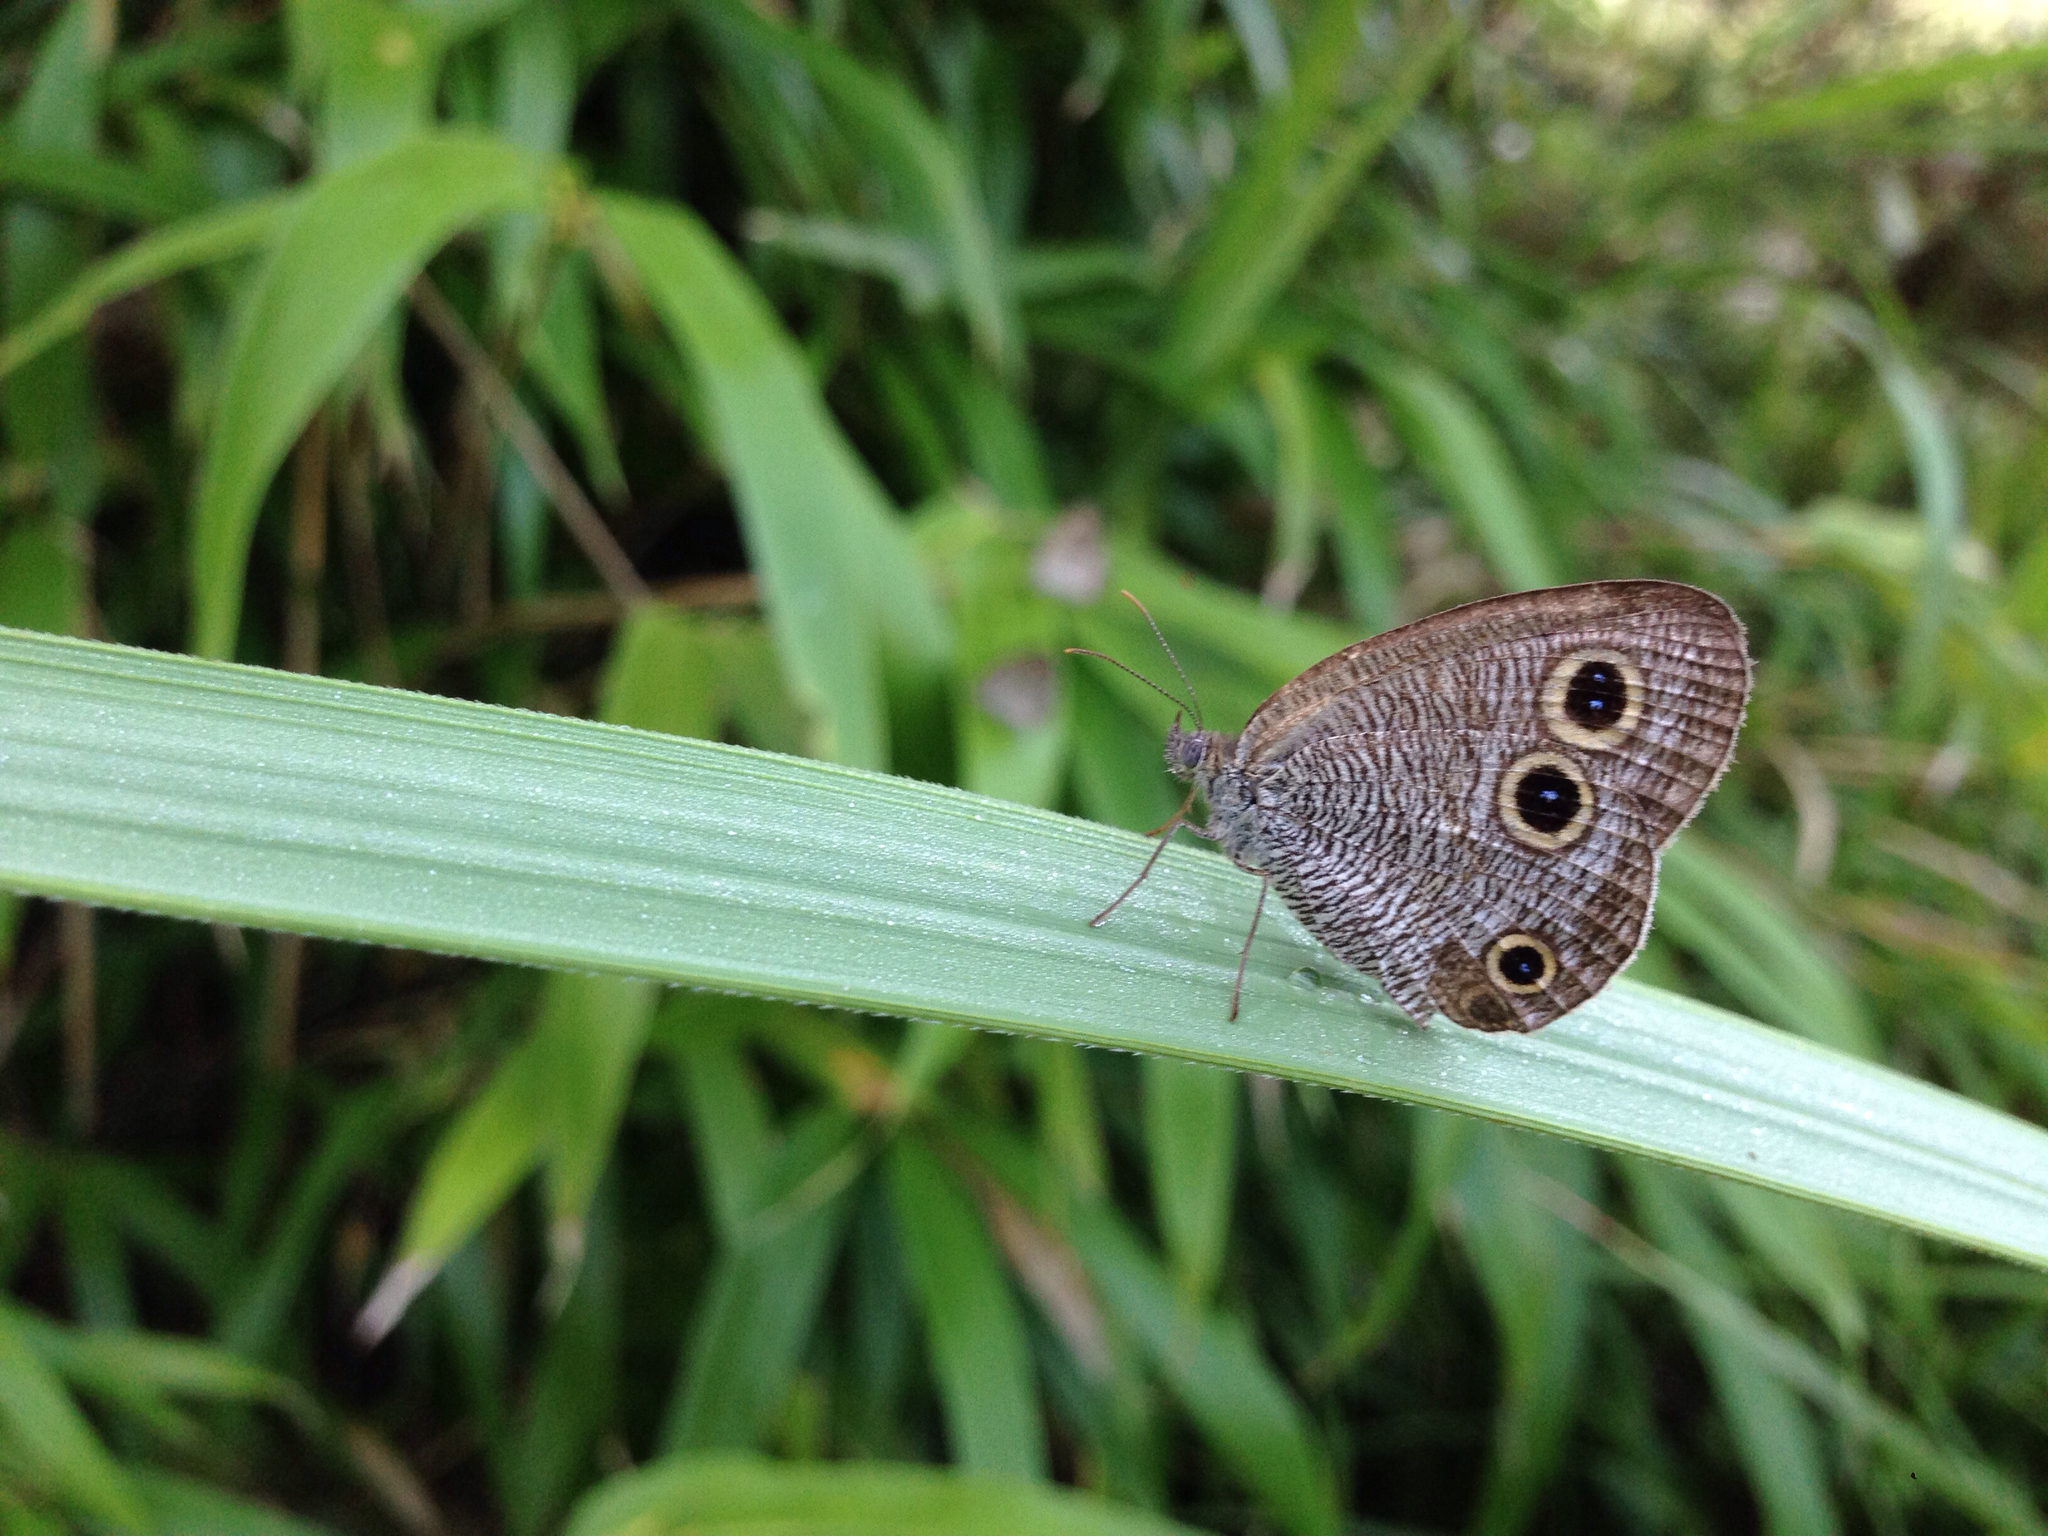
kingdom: Animalia
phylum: Arthropoda
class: Insecta
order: Lepidoptera
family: Nymphalidae
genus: Ypthima
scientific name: Ypthima motschulskyi
